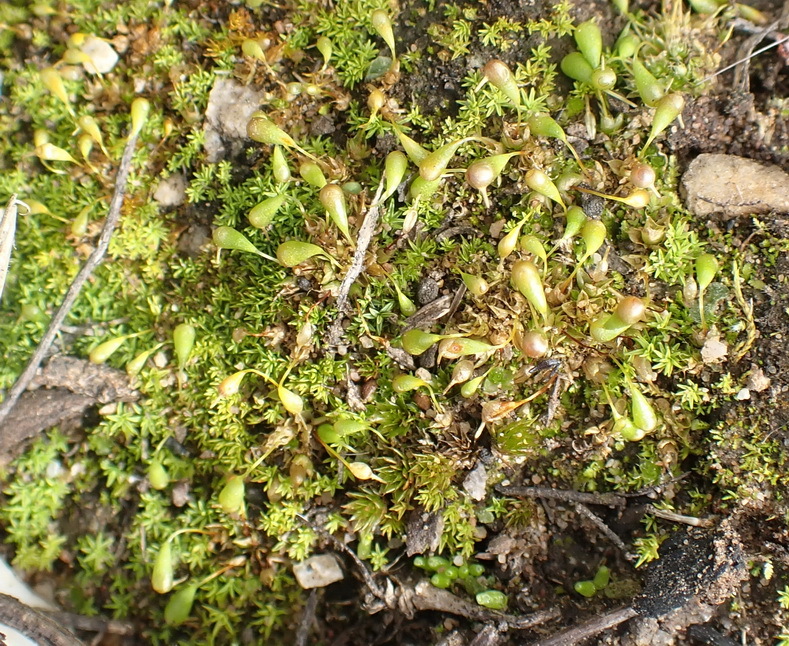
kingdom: Plantae
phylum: Bryophyta
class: Bryopsida
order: Funariales
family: Funariaceae
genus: Entosthodon
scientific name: Entosthodon clavatus
